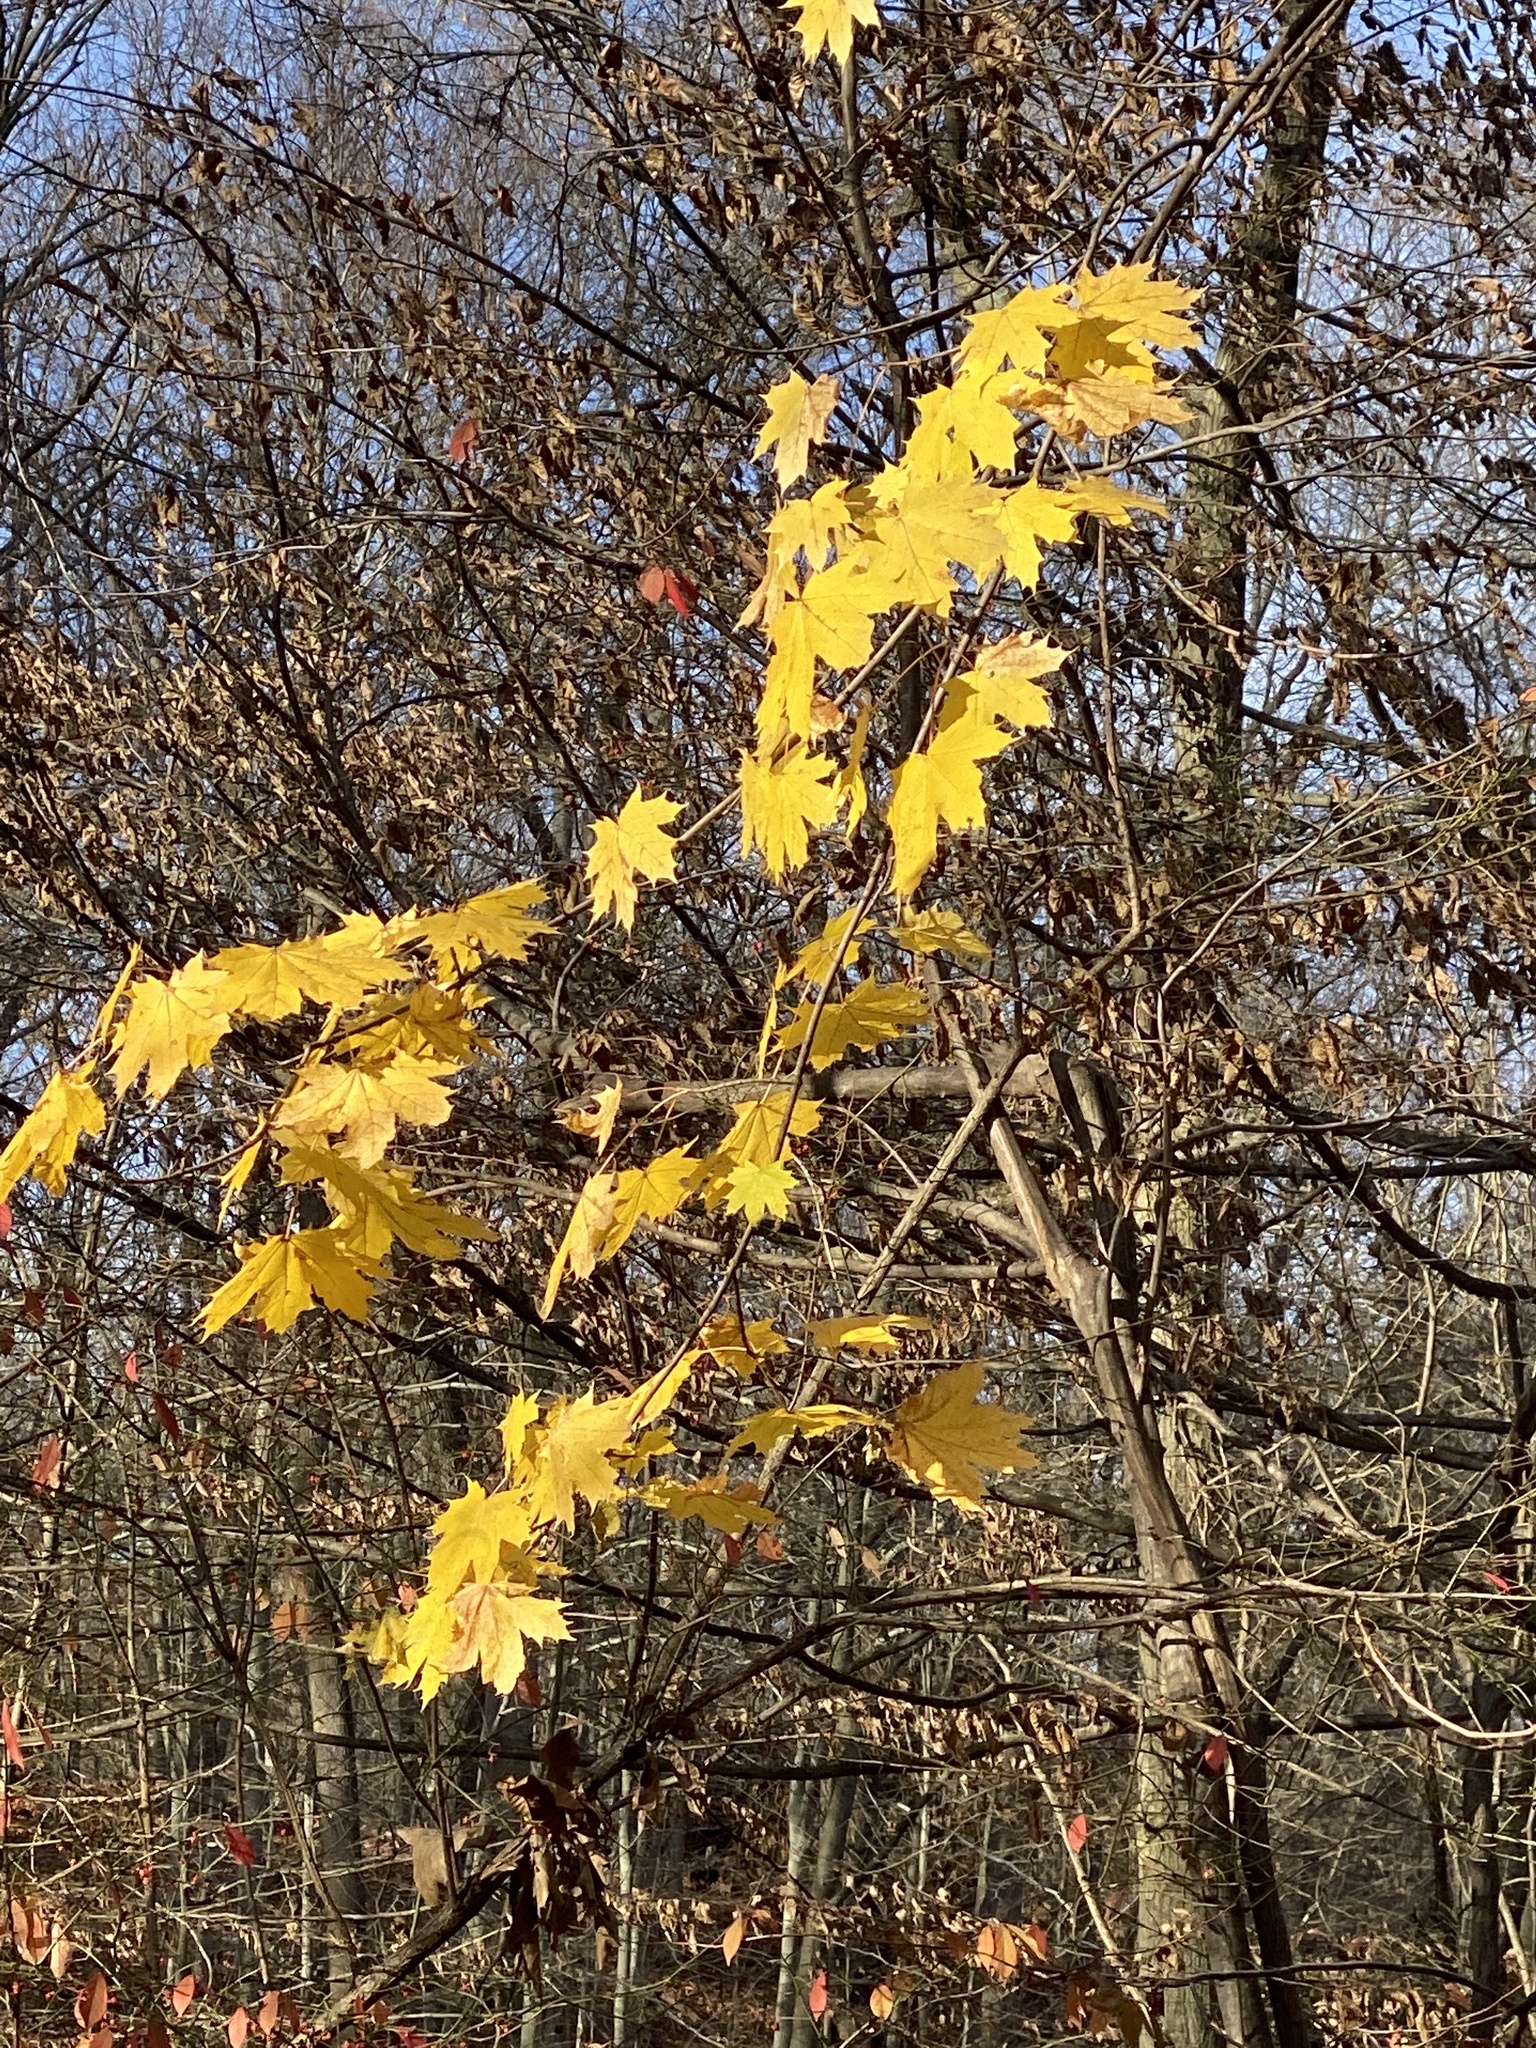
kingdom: Plantae
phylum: Tracheophyta
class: Magnoliopsida
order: Sapindales
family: Sapindaceae
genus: Acer
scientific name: Acer platanoides
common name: Norway maple
